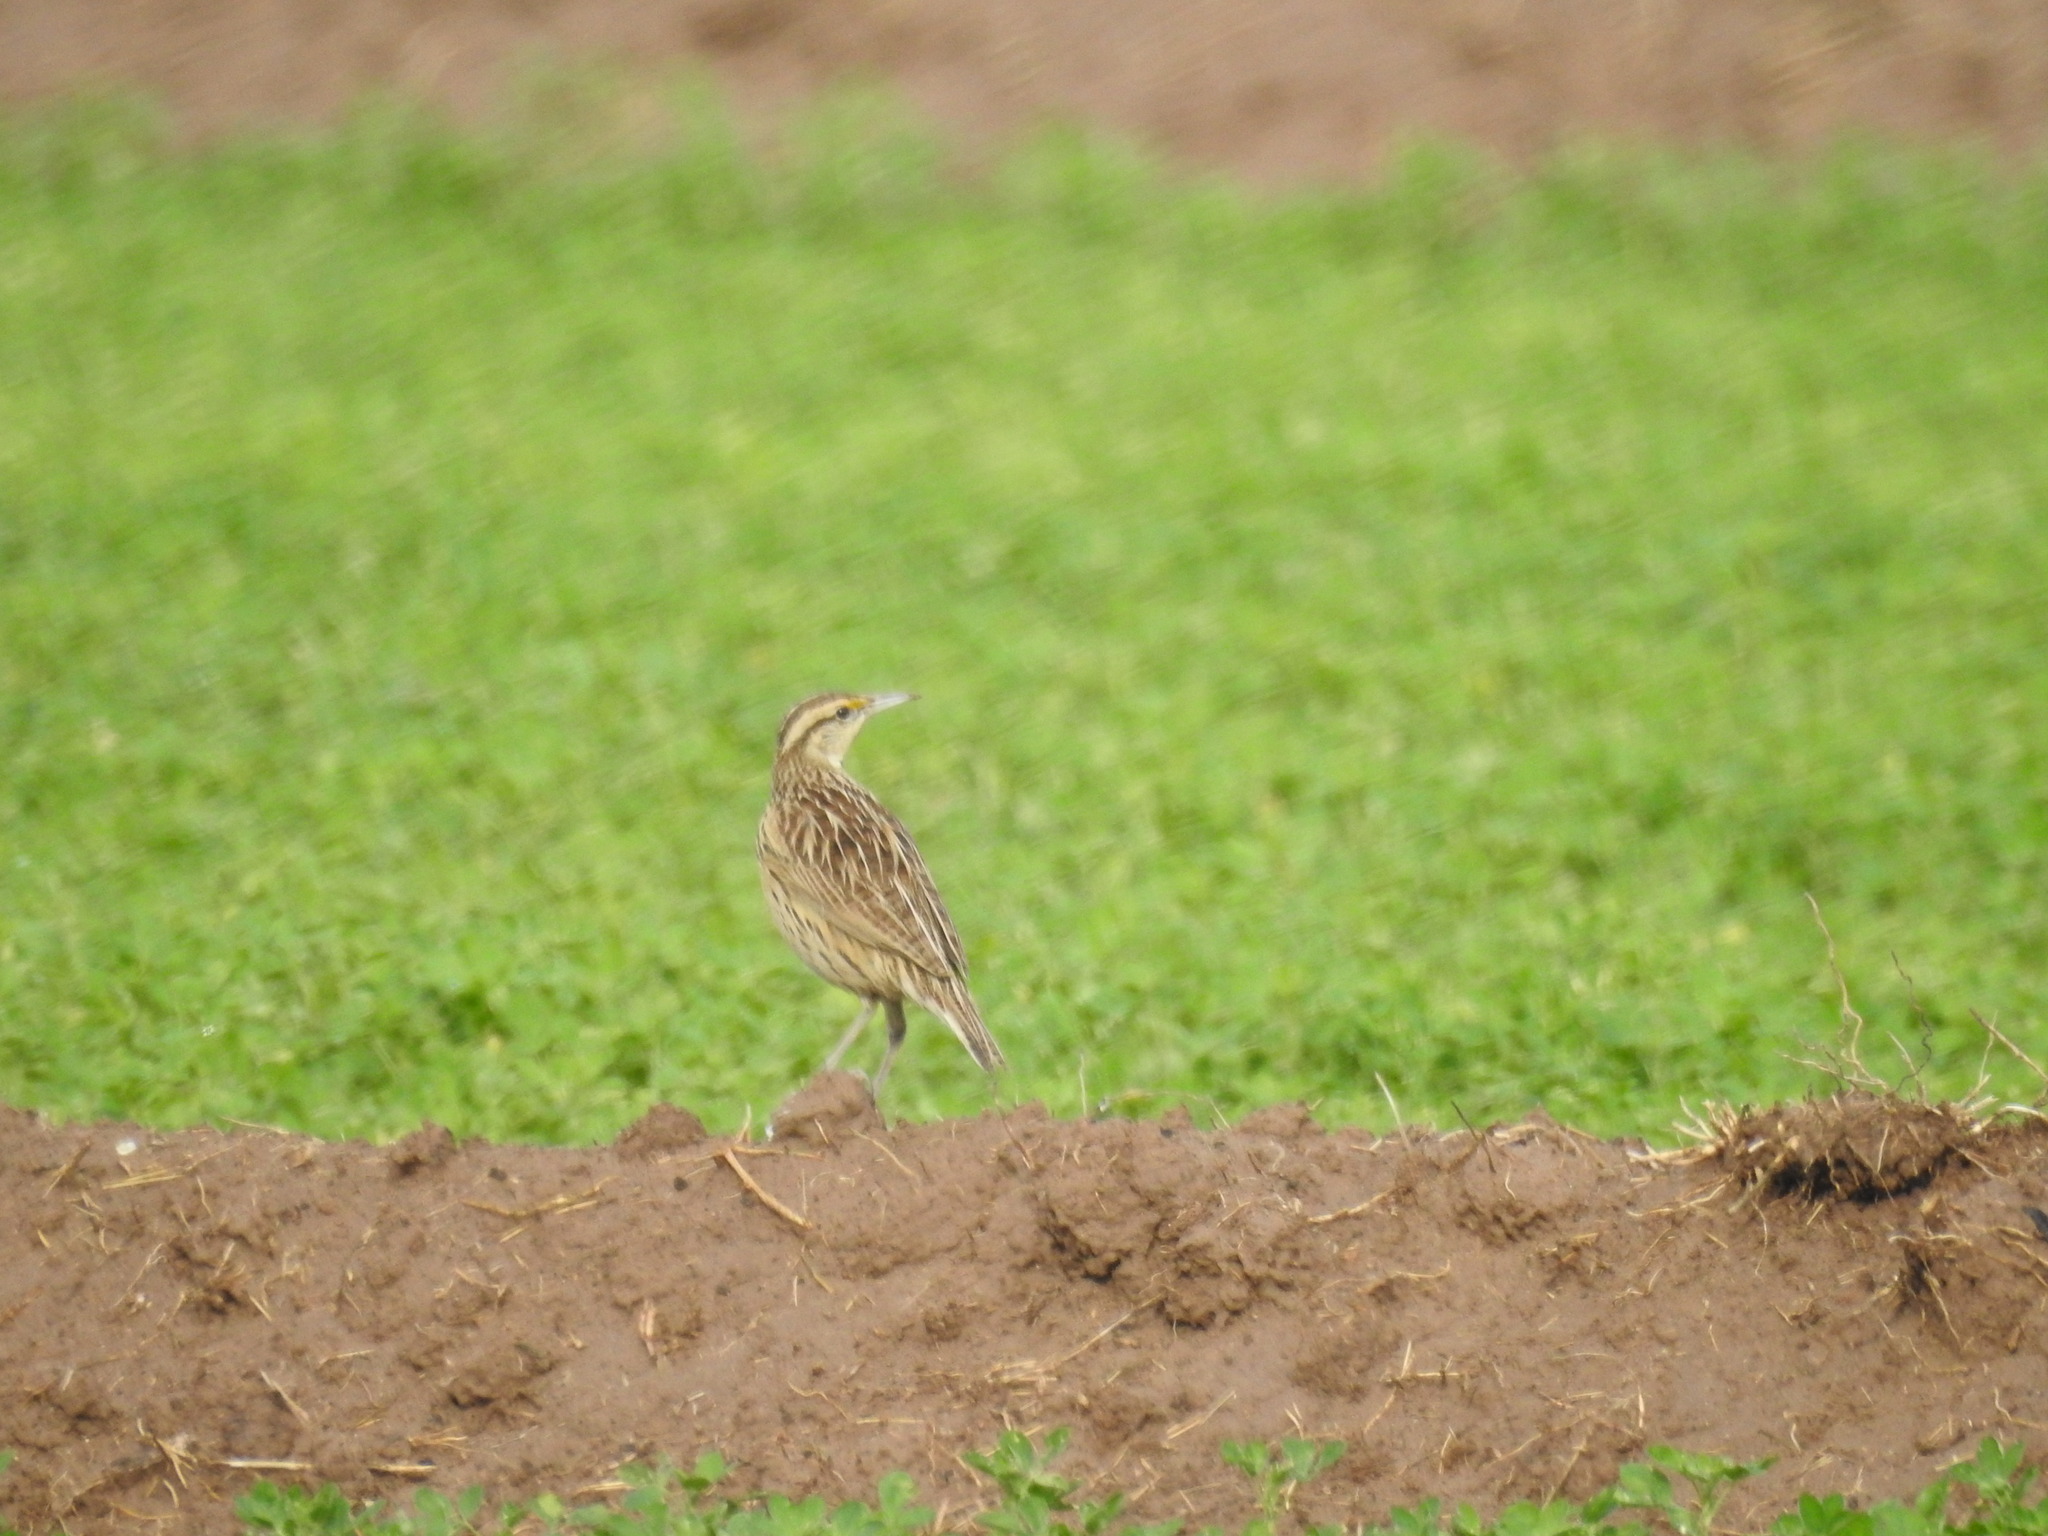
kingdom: Animalia
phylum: Chordata
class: Aves
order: Passeriformes
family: Icteridae
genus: Sturnella
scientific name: Sturnella neglecta
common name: Western meadowlark
